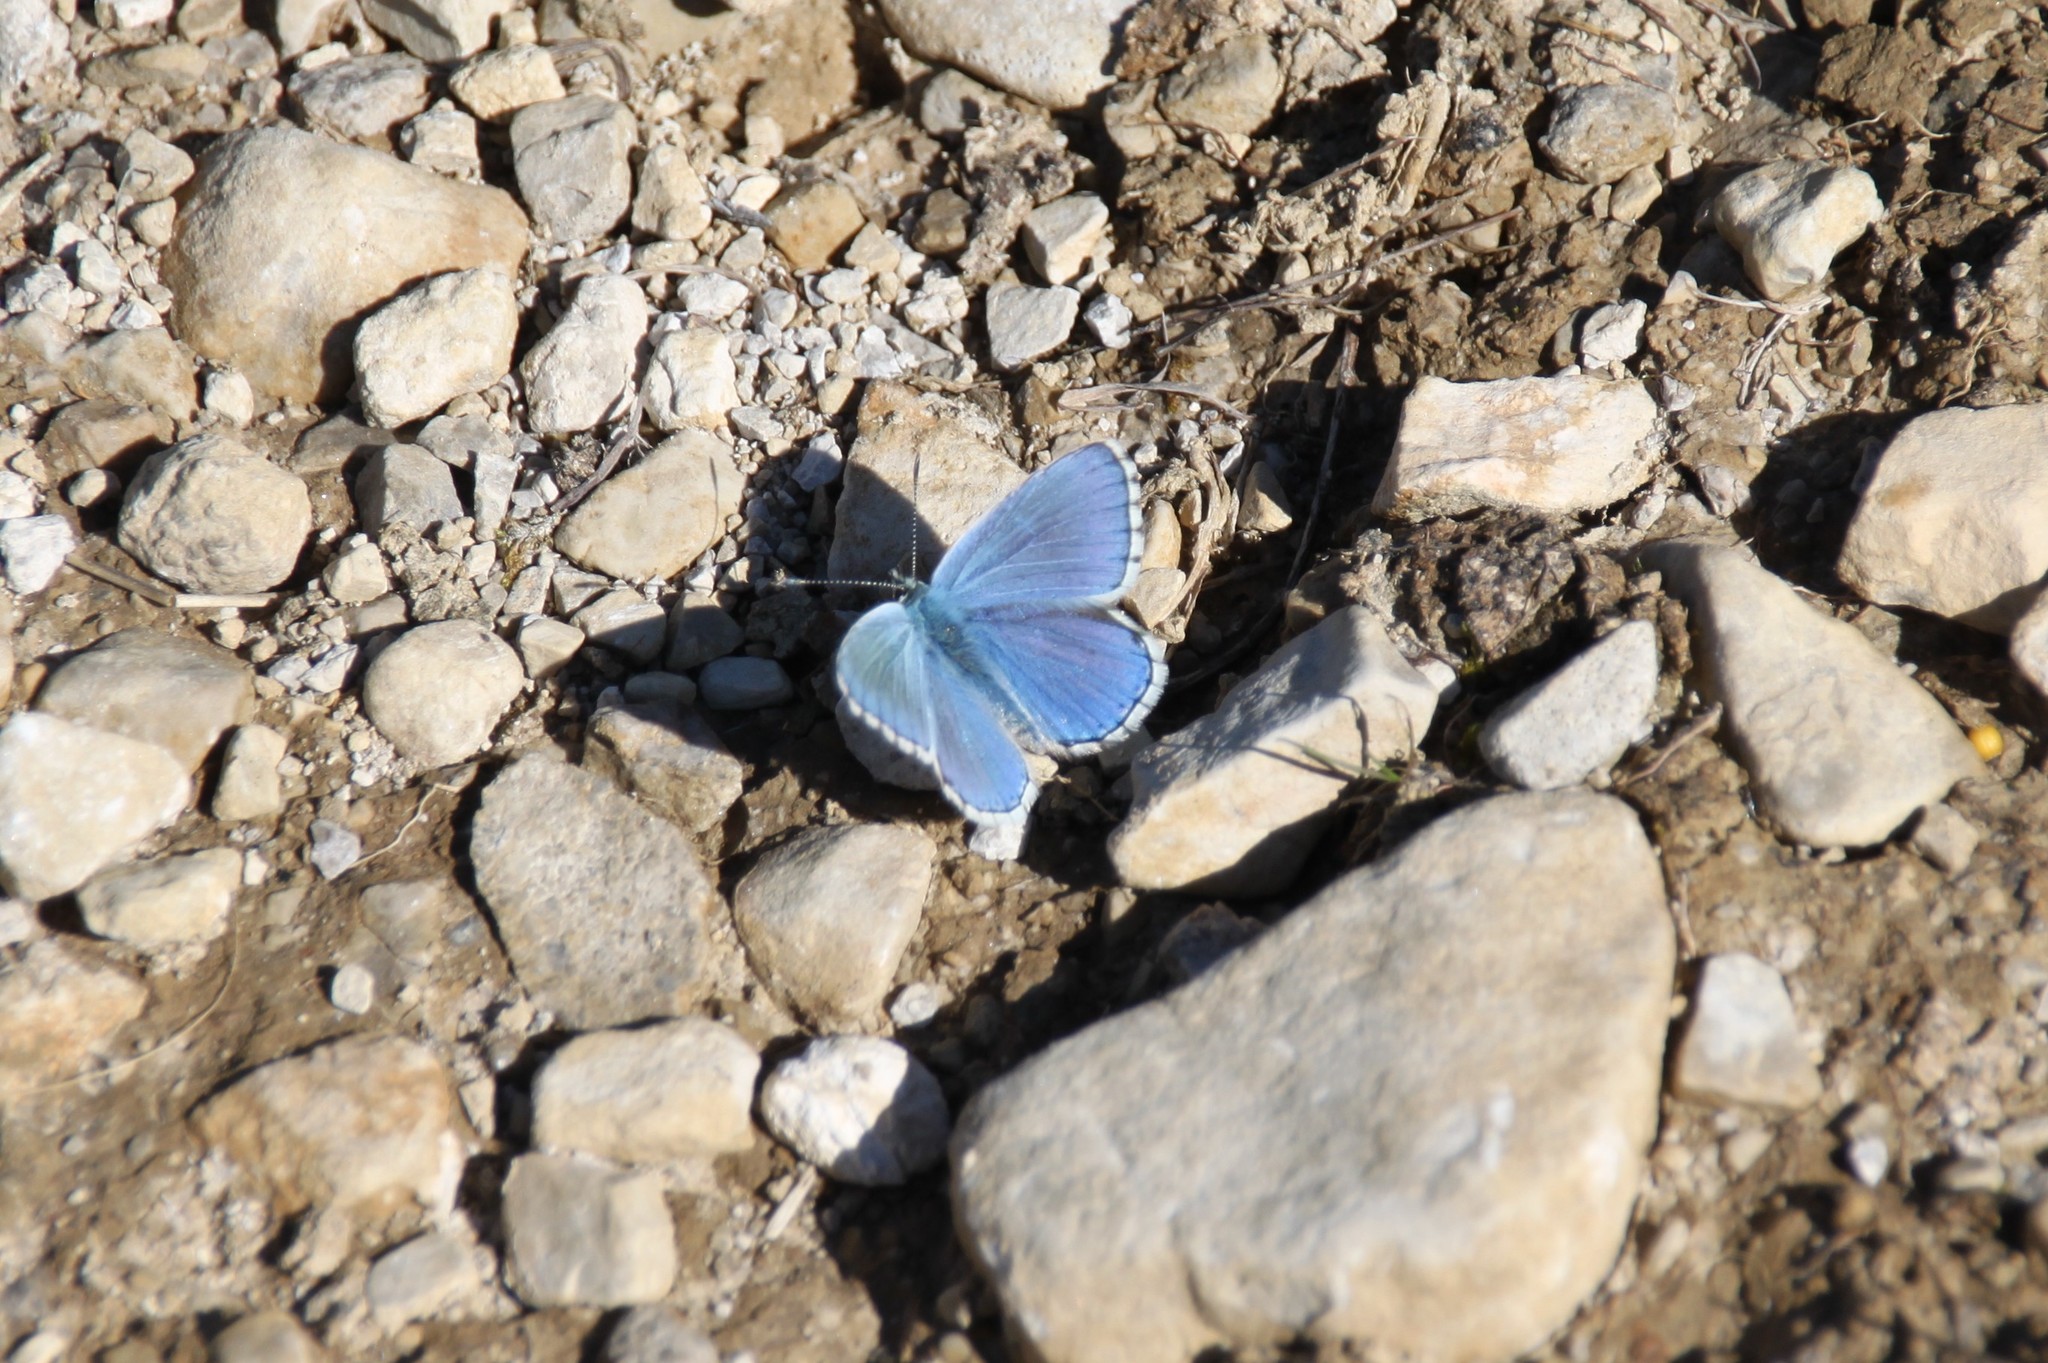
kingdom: Animalia
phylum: Arthropoda
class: Insecta
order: Lepidoptera
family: Lycaenidae
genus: Lysandra
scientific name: Lysandra bellargus
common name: Adonis blue
